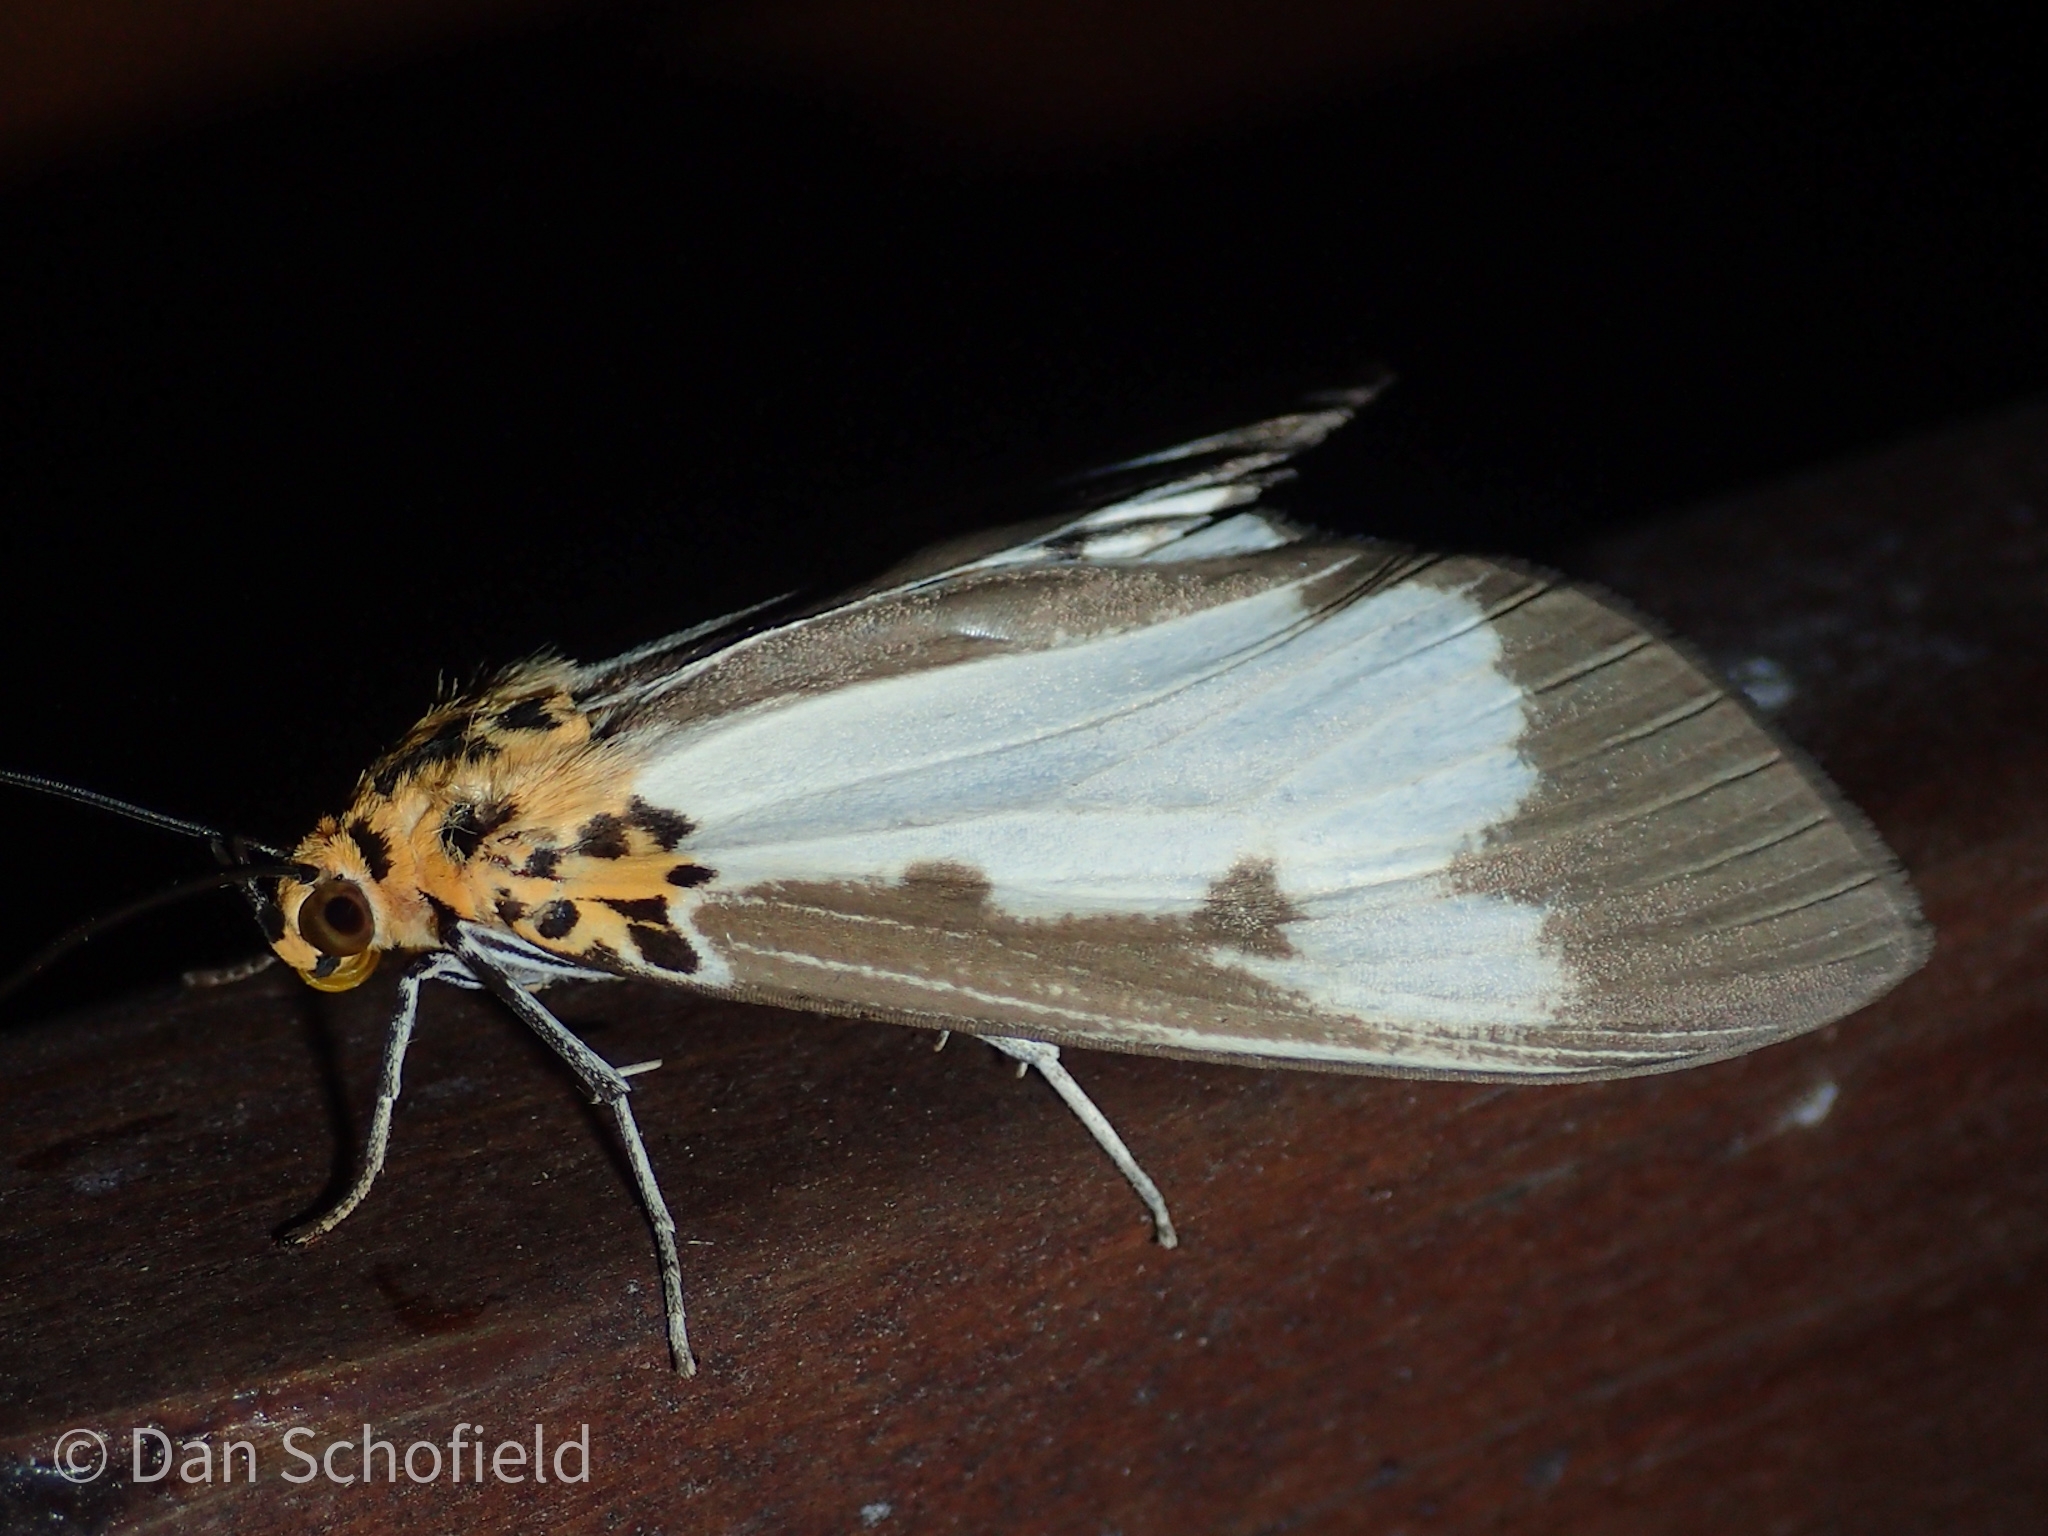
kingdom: Animalia
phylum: Arthropoda
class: Insecta
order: Lepidoptera
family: Erebidae
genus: Asota
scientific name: Asota plana
